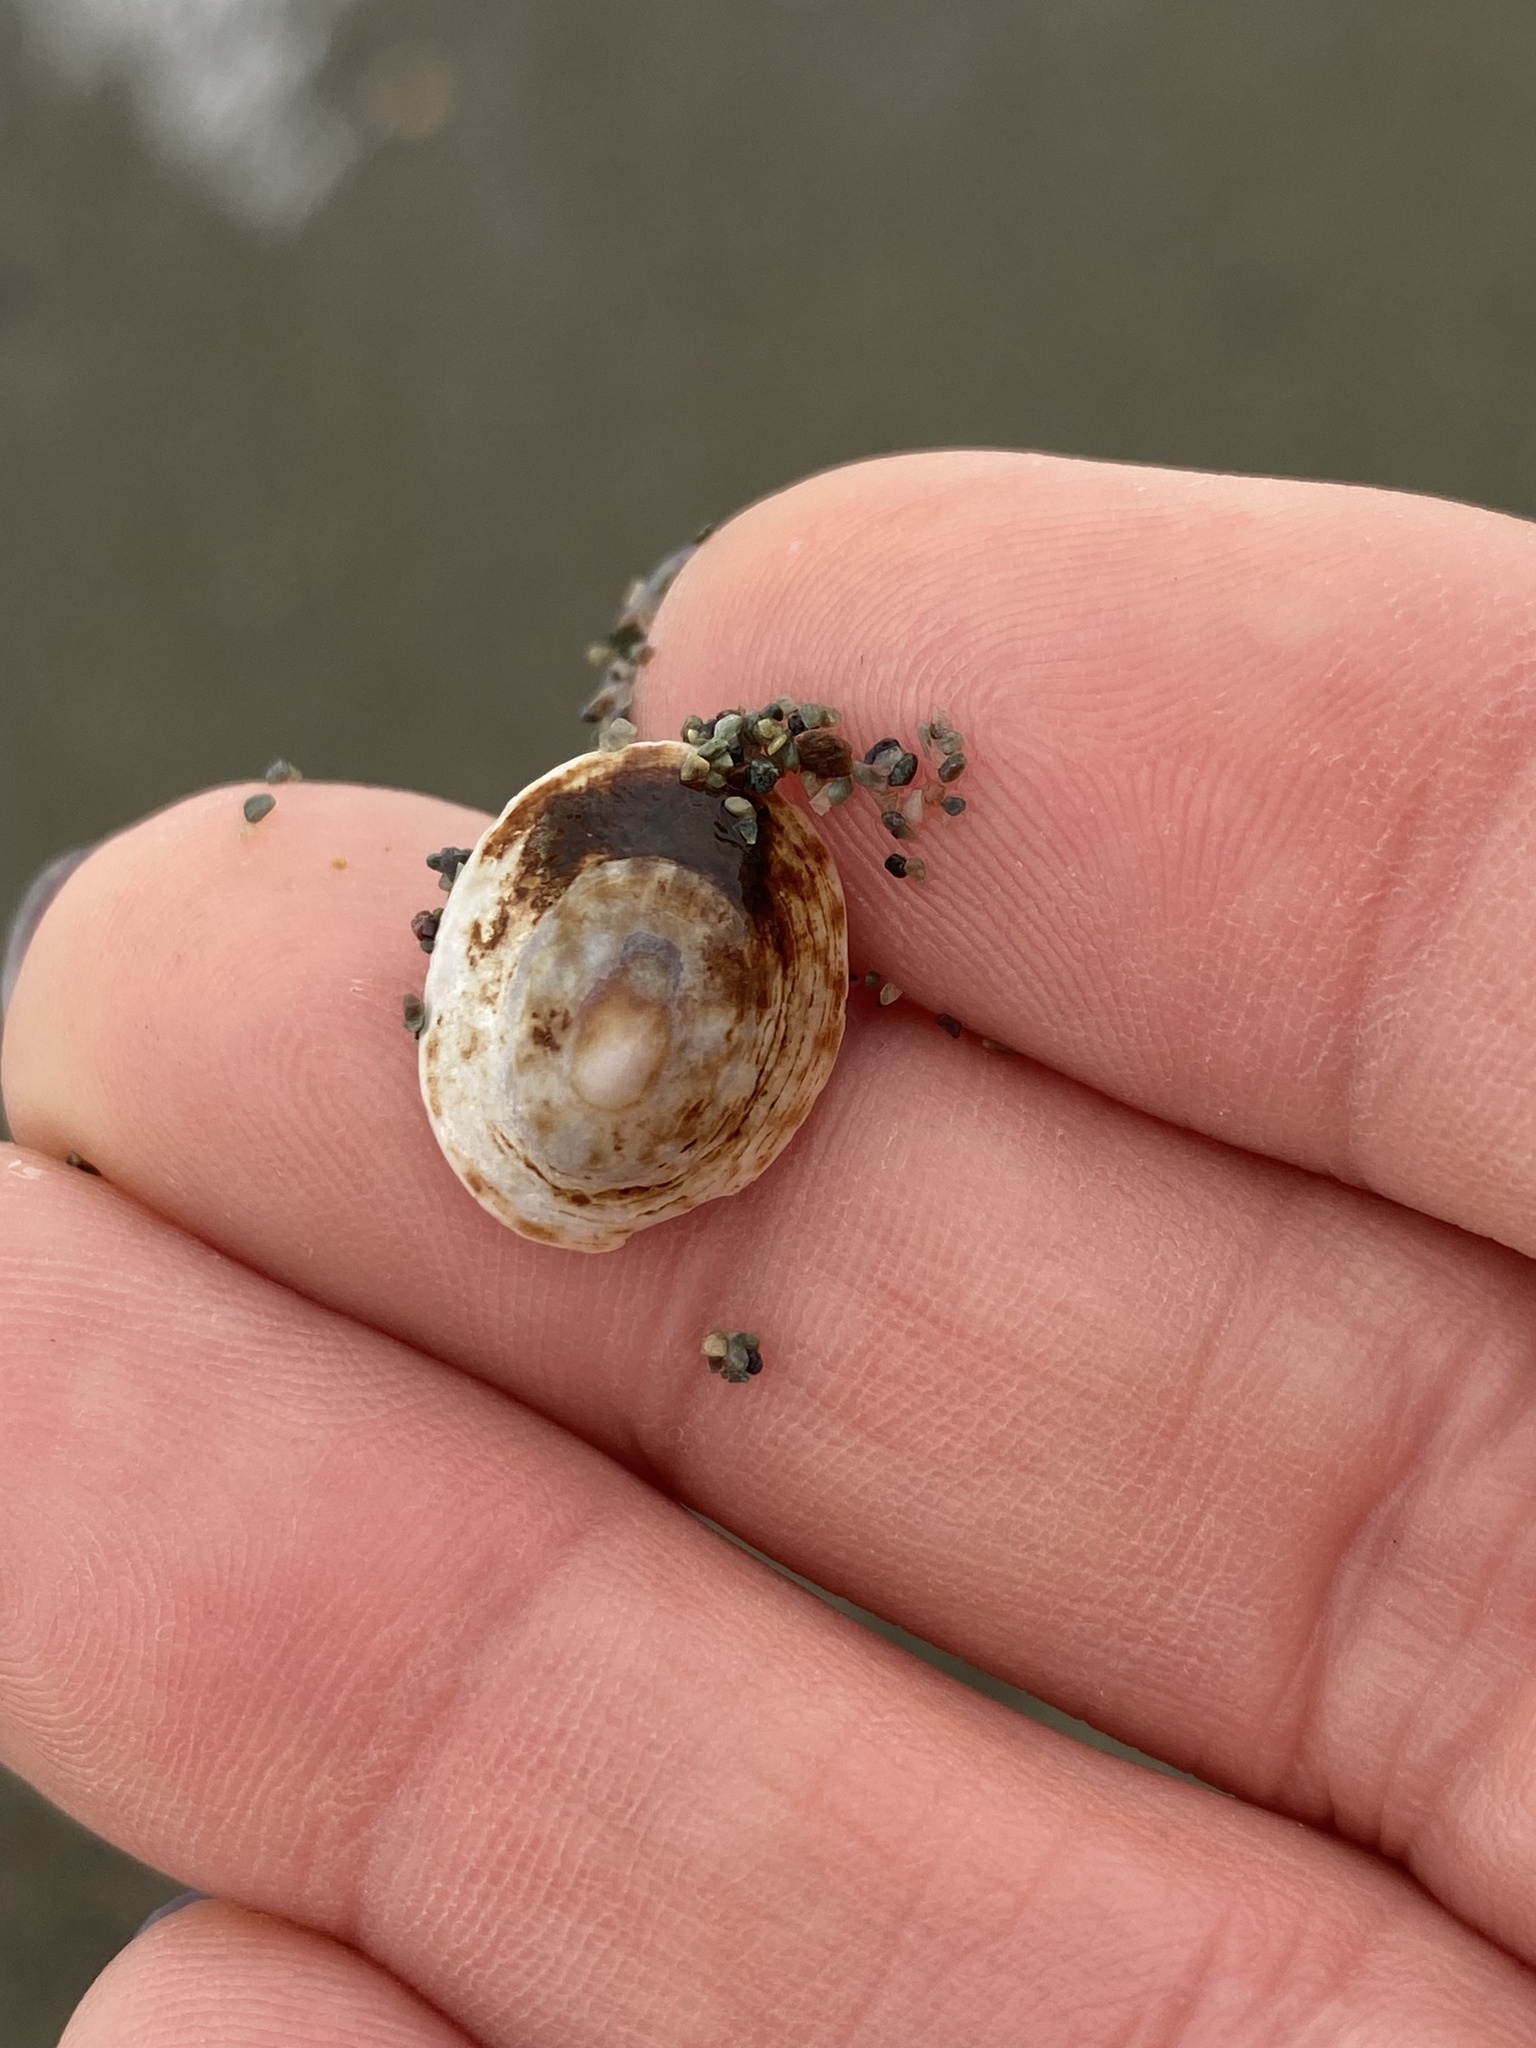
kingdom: Animalia
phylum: Mollusca
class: Gastropoda
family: Lottiidae
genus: Testudinalia
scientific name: Testudinalia testudinalis
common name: Common tortoiseshell limpet
